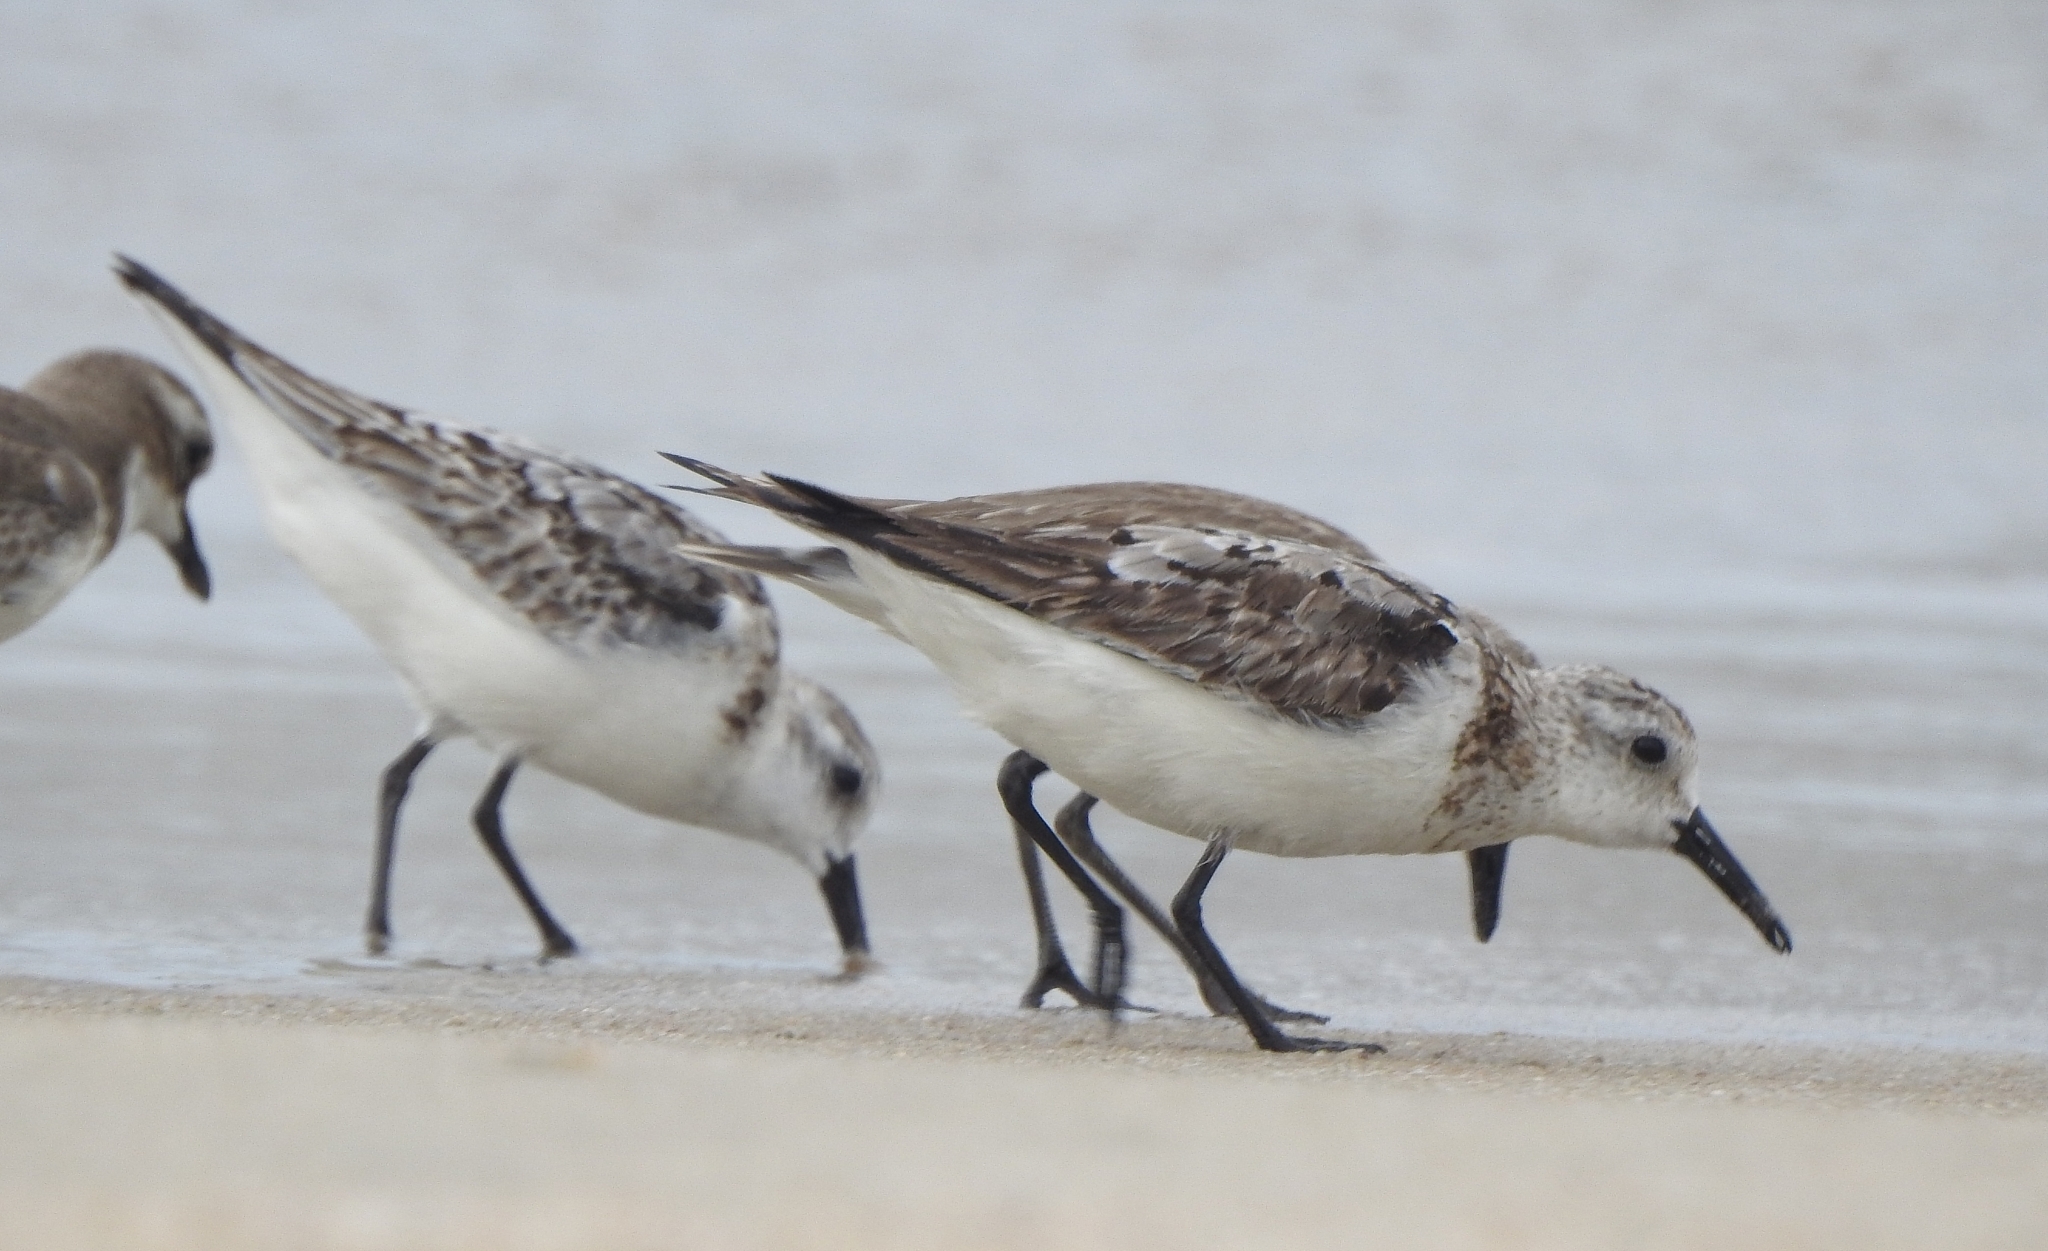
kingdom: Animalia
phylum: Chordata
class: Aves
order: Charadriiformes
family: Scolopacidae
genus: Calidris
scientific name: Calidris alba
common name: Sanderling
